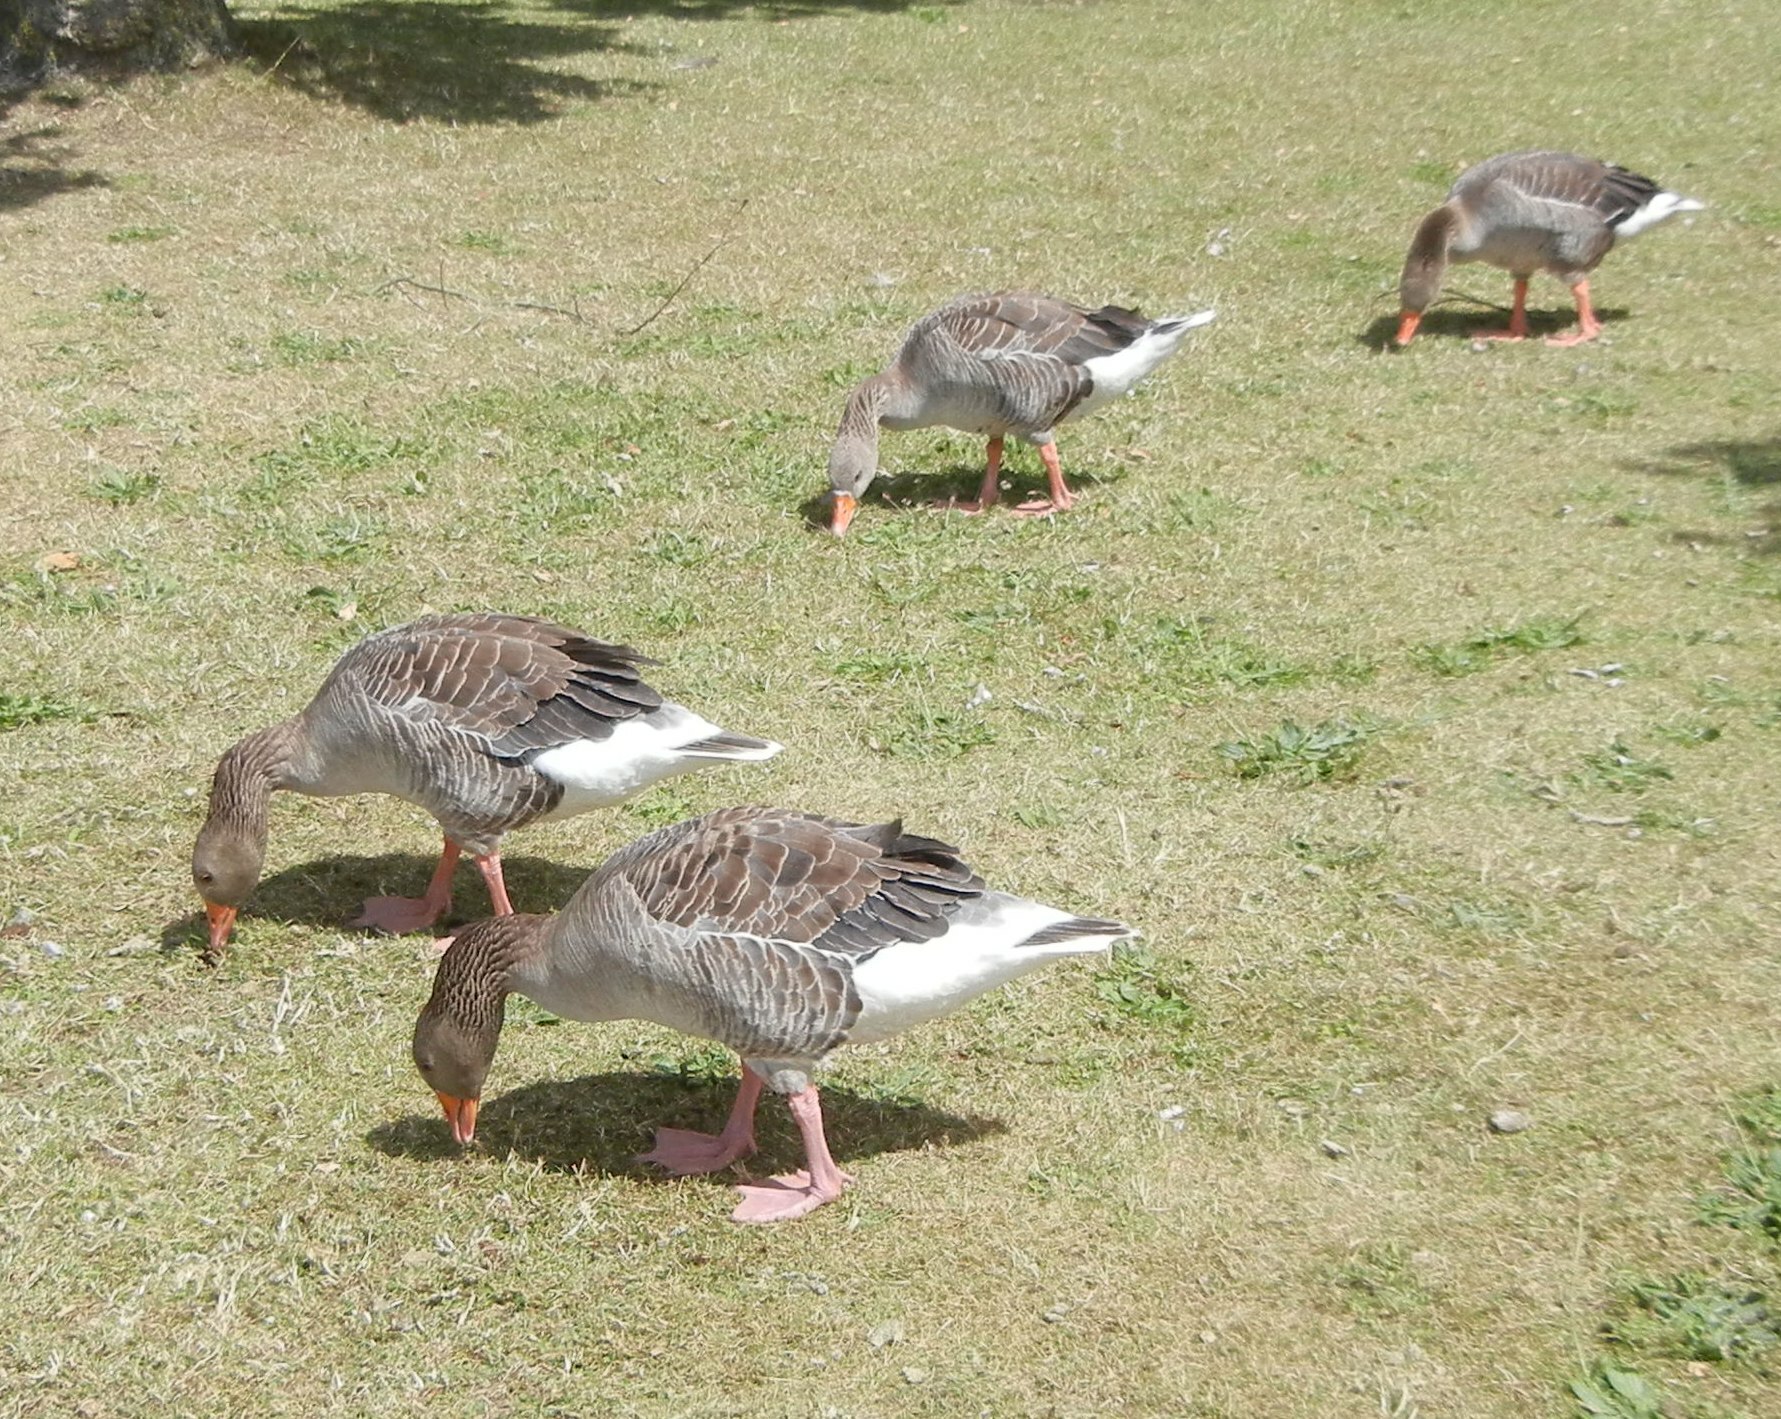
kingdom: Animalia
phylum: Chordata
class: Aves
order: Anseriformes
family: Anatidae
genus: Anser
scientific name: Anser anser
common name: Greylag goose
